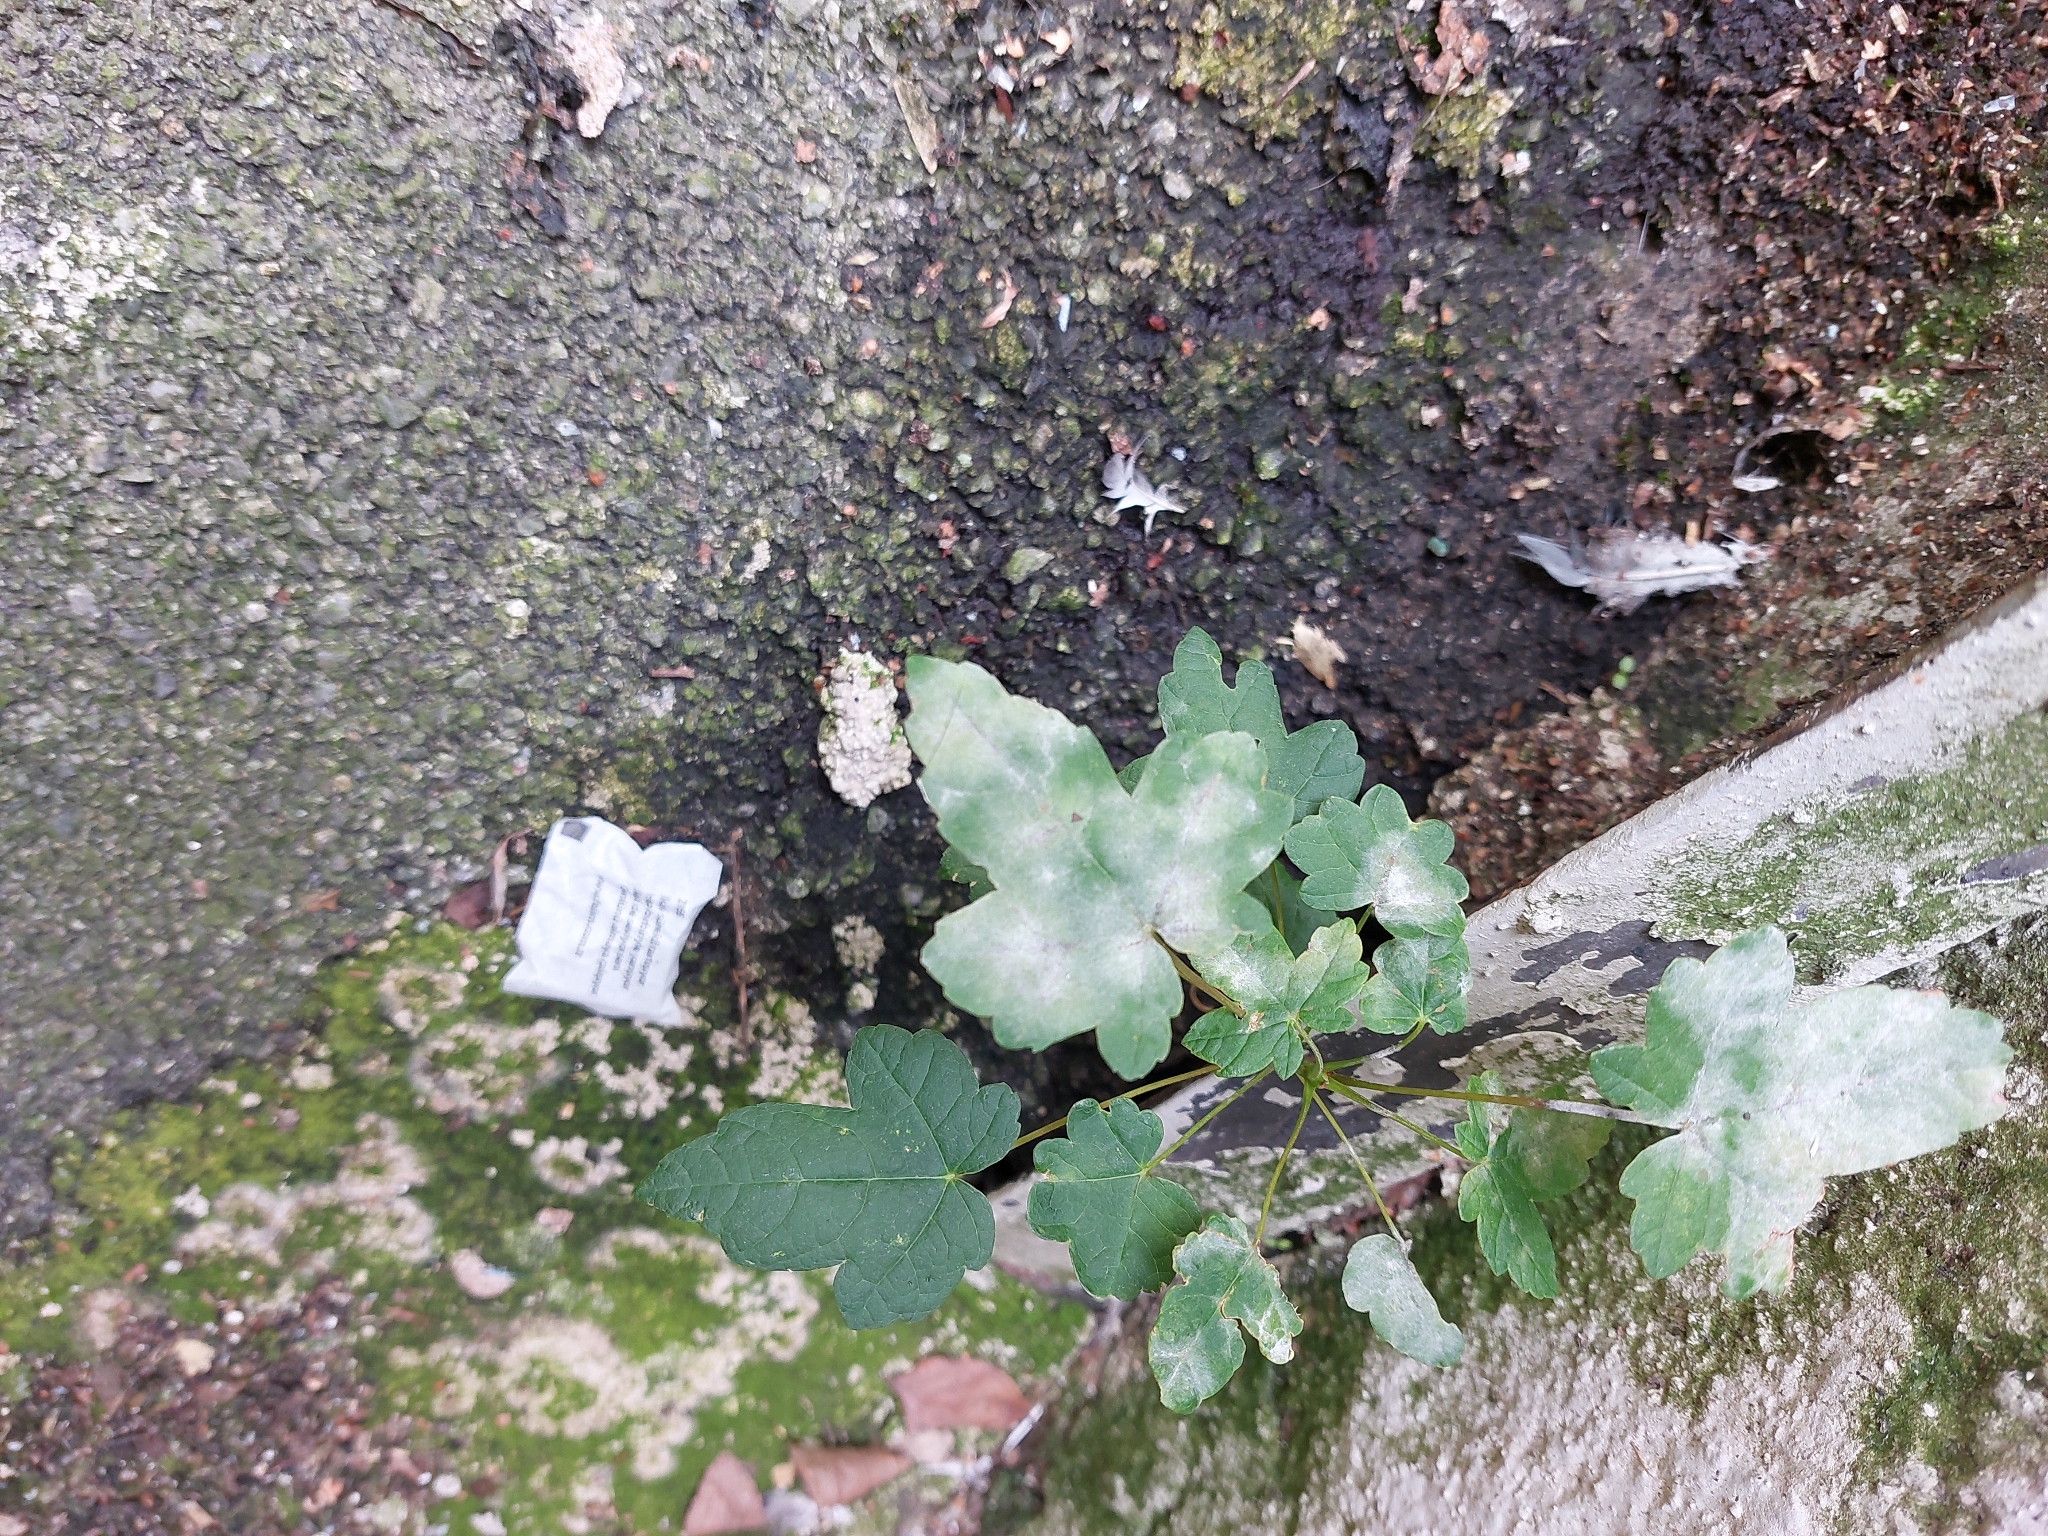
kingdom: Plantae
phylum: Tracheophyta
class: Magnoliopsida
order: Sapindales
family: Sapindaceae
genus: Acer
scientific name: Acer pseudoplatanus
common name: Sycamore
